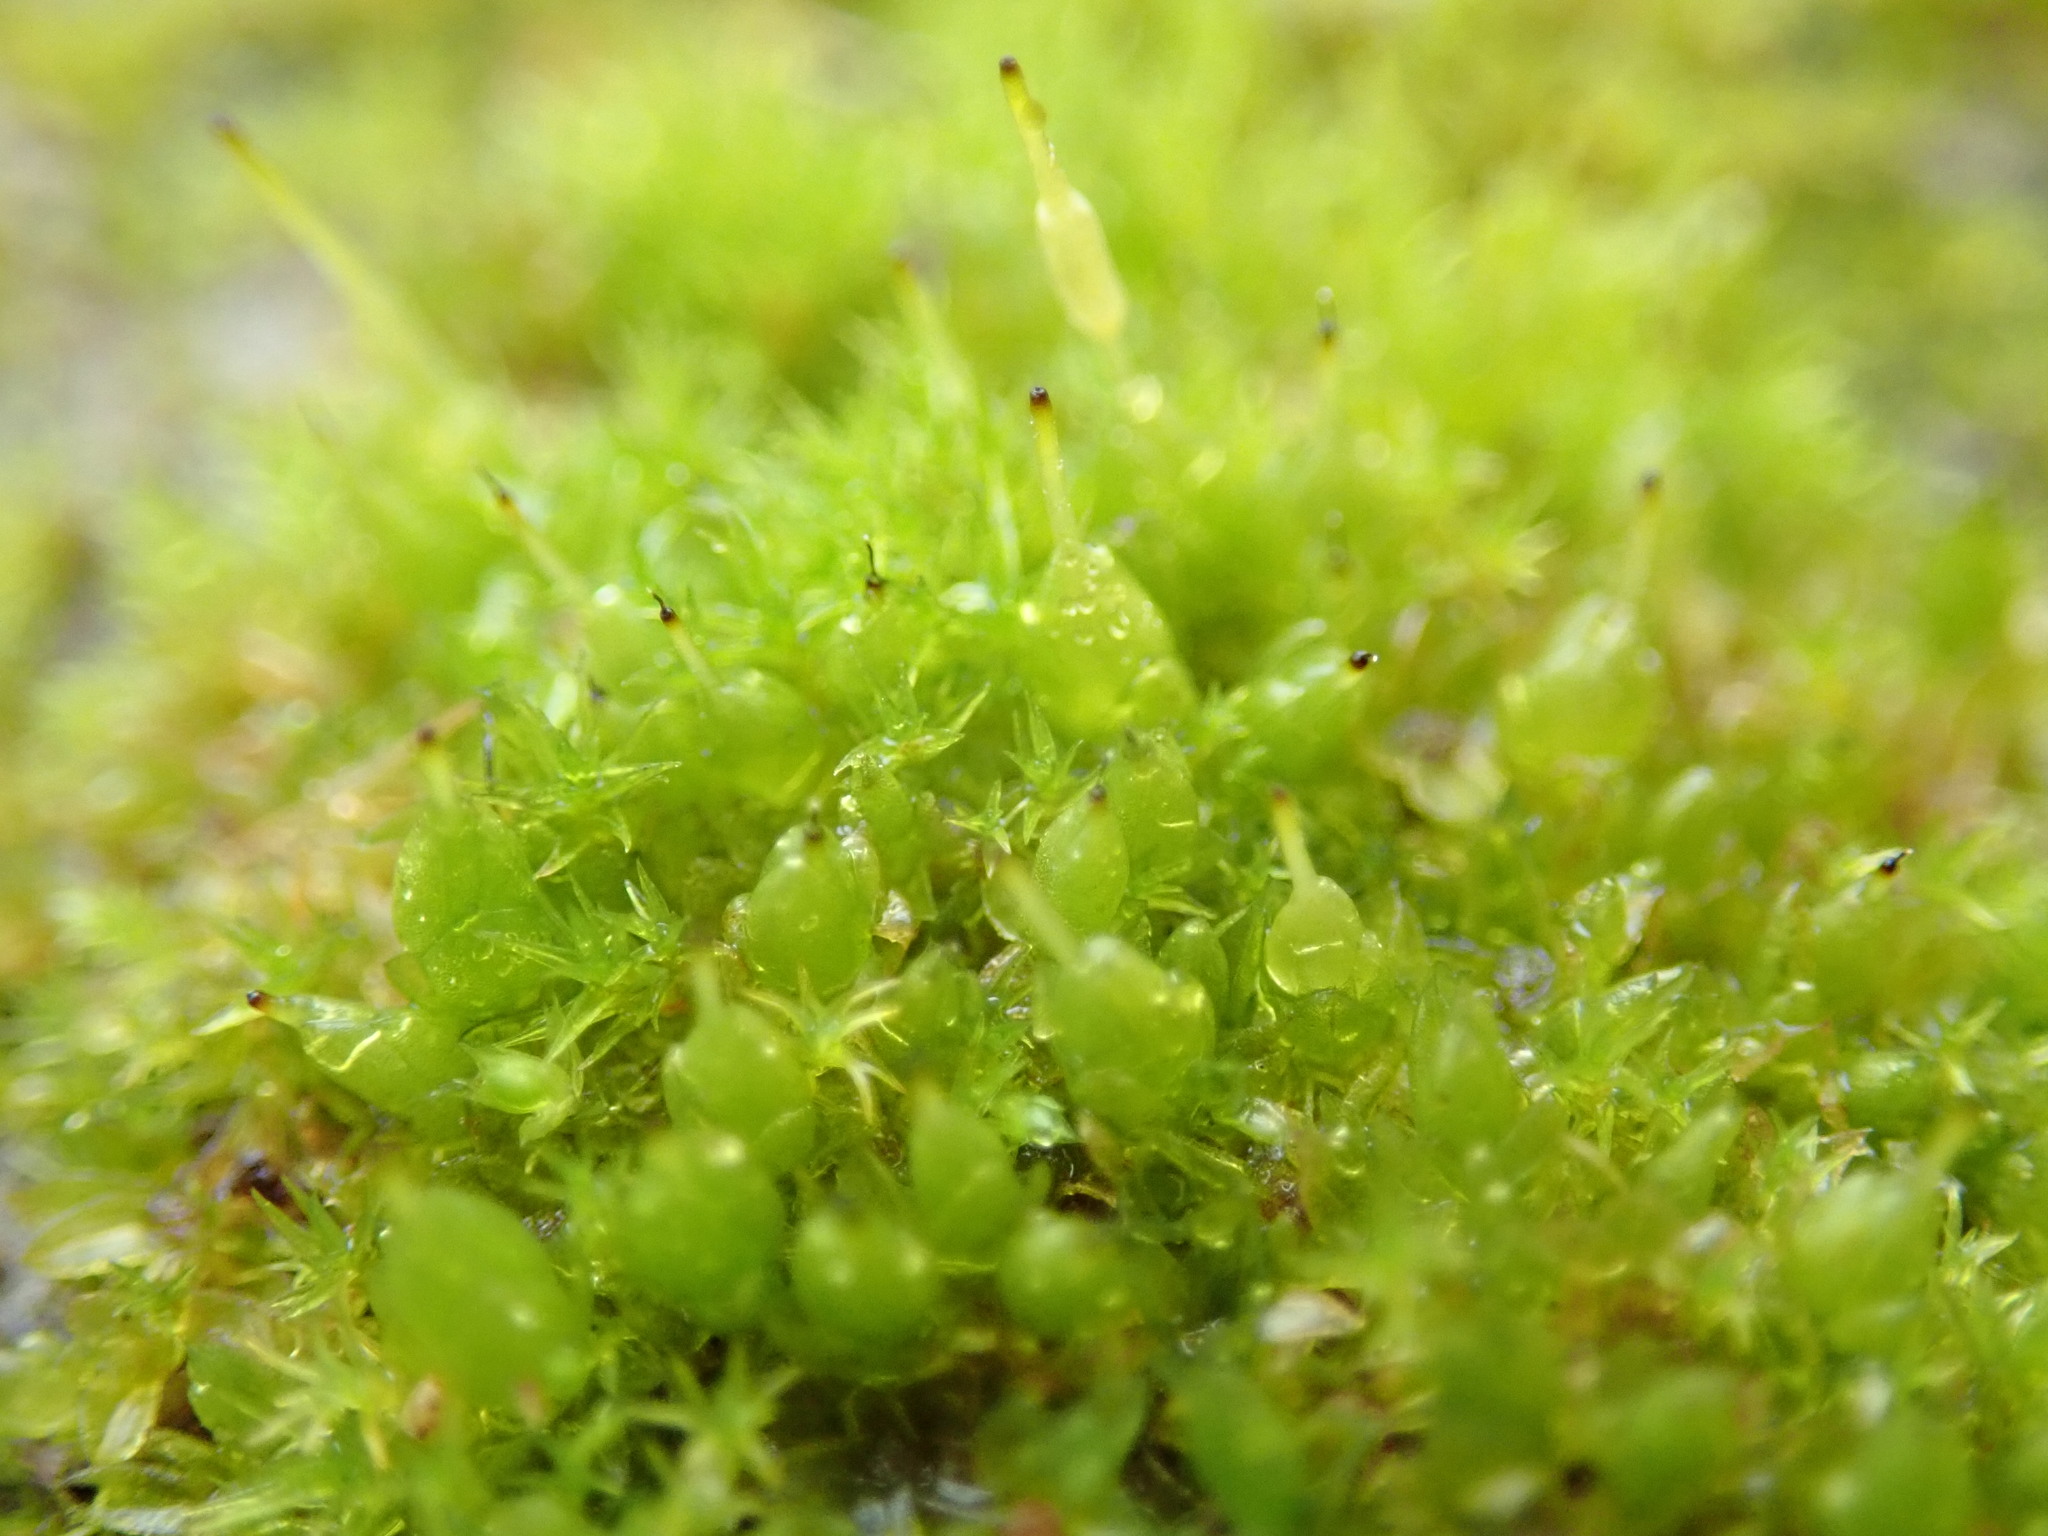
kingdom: Plantae
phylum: Bryophyta
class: Bryopsida
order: Funariales
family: Funariaceae
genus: Funaria
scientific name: Funaria hygrometrica
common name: Common cord moss
